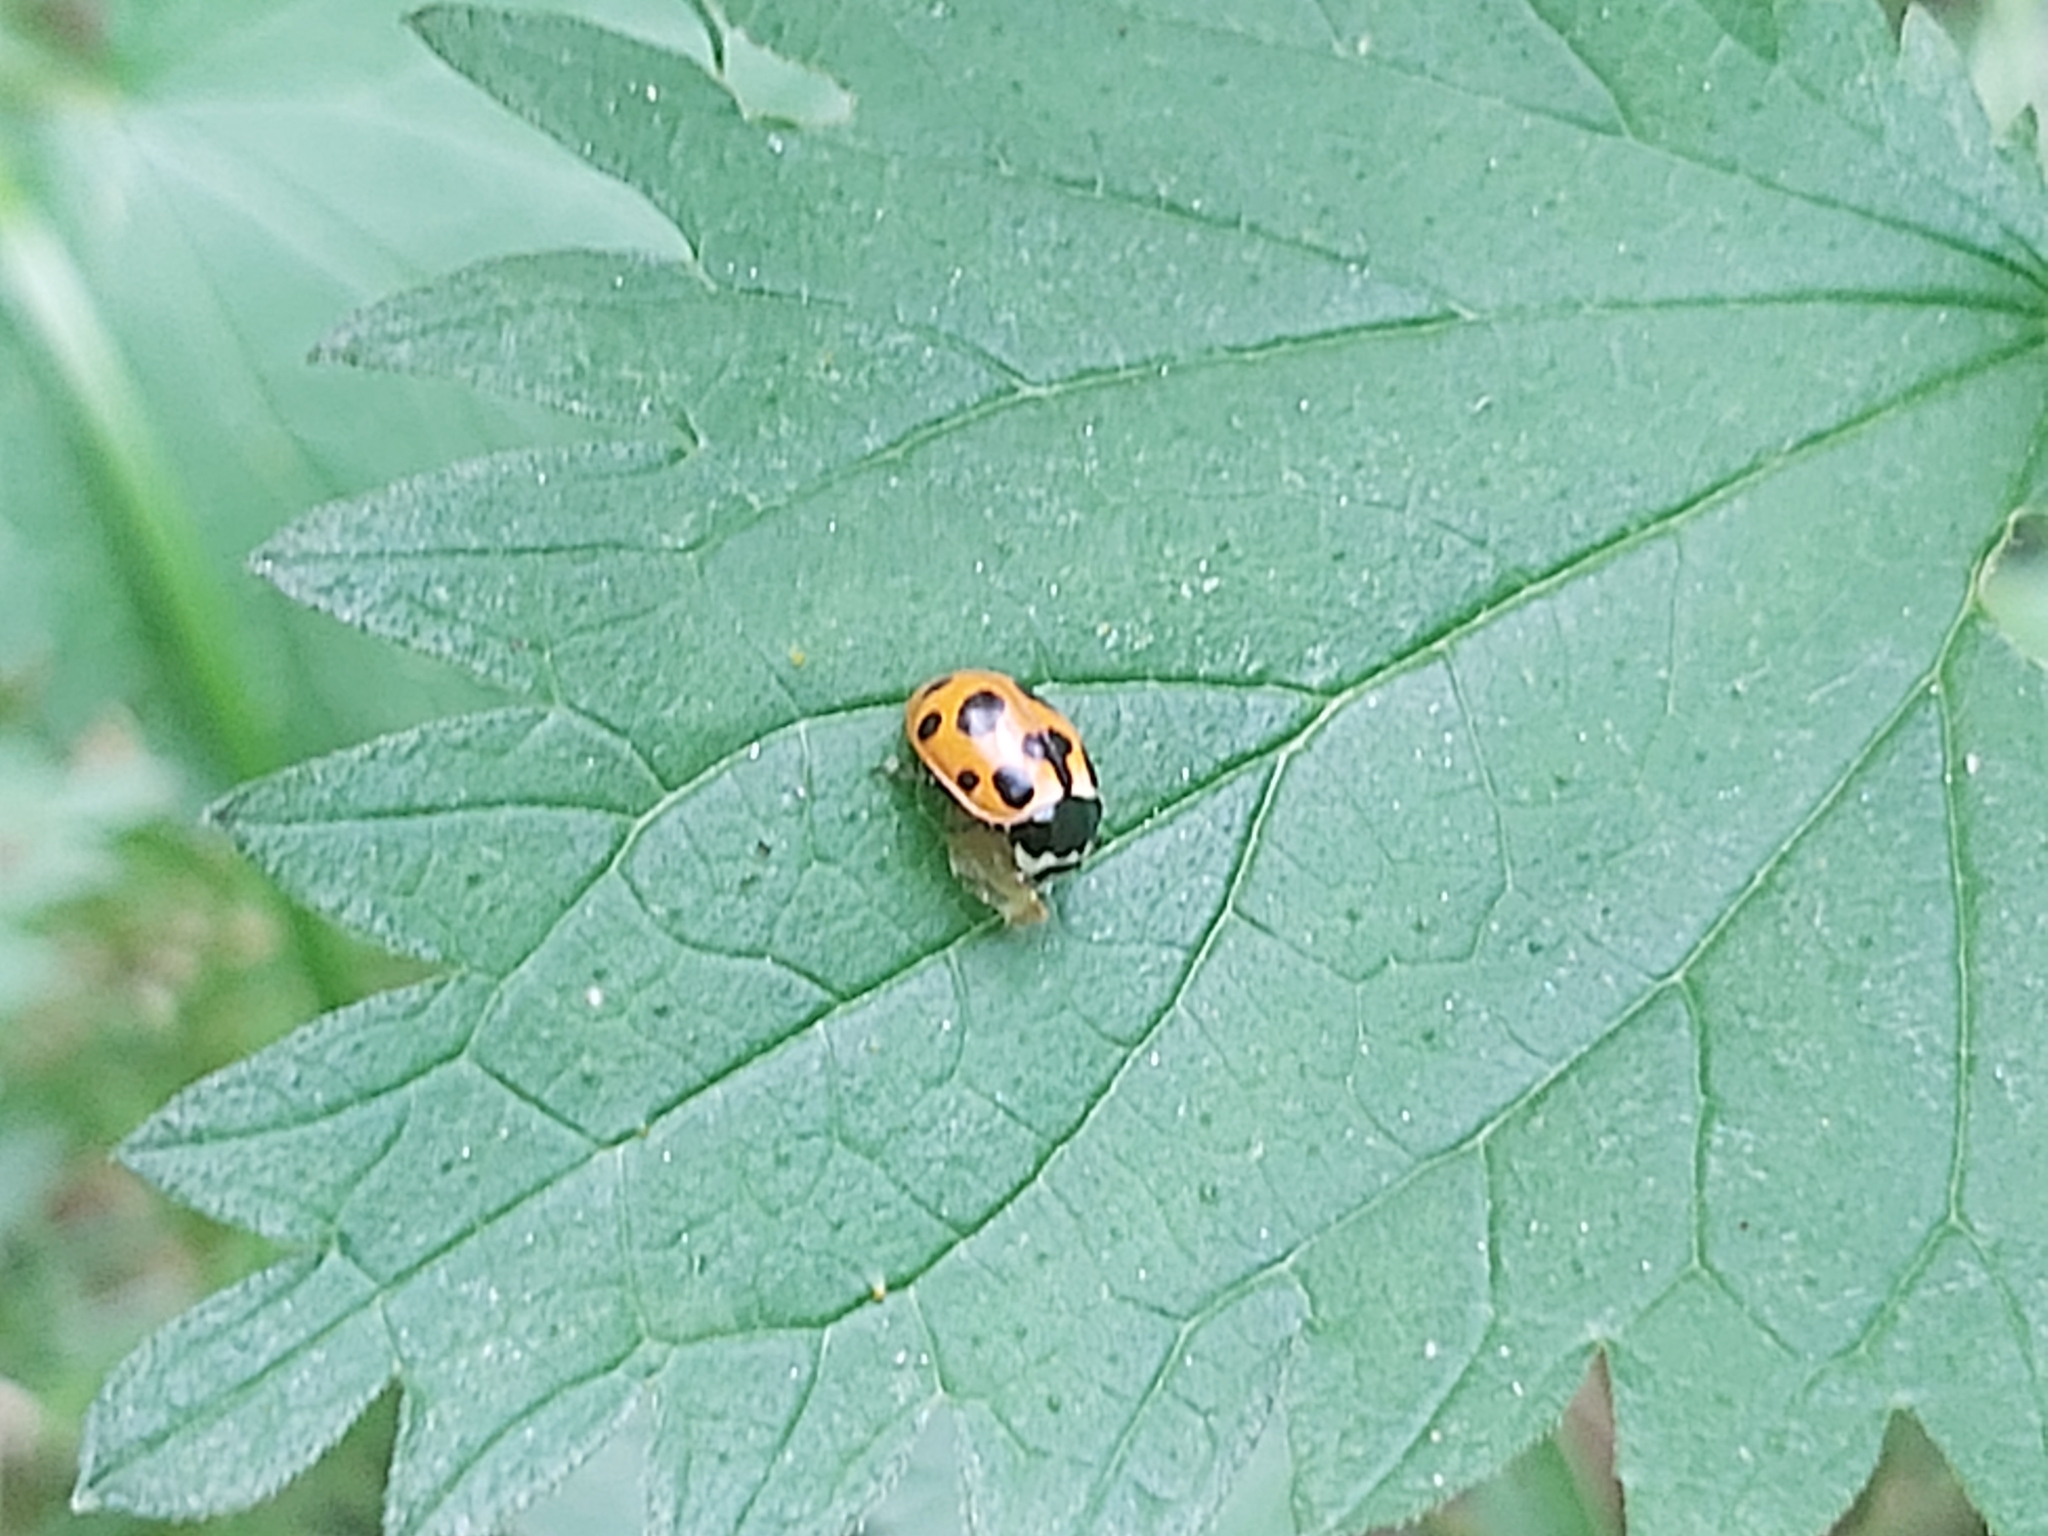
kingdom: Animalia
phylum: Arthropoda
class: Insecta
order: Coleoptera
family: Coccinellidae
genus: Ceratomegilla
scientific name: Ceratomegilla notata
